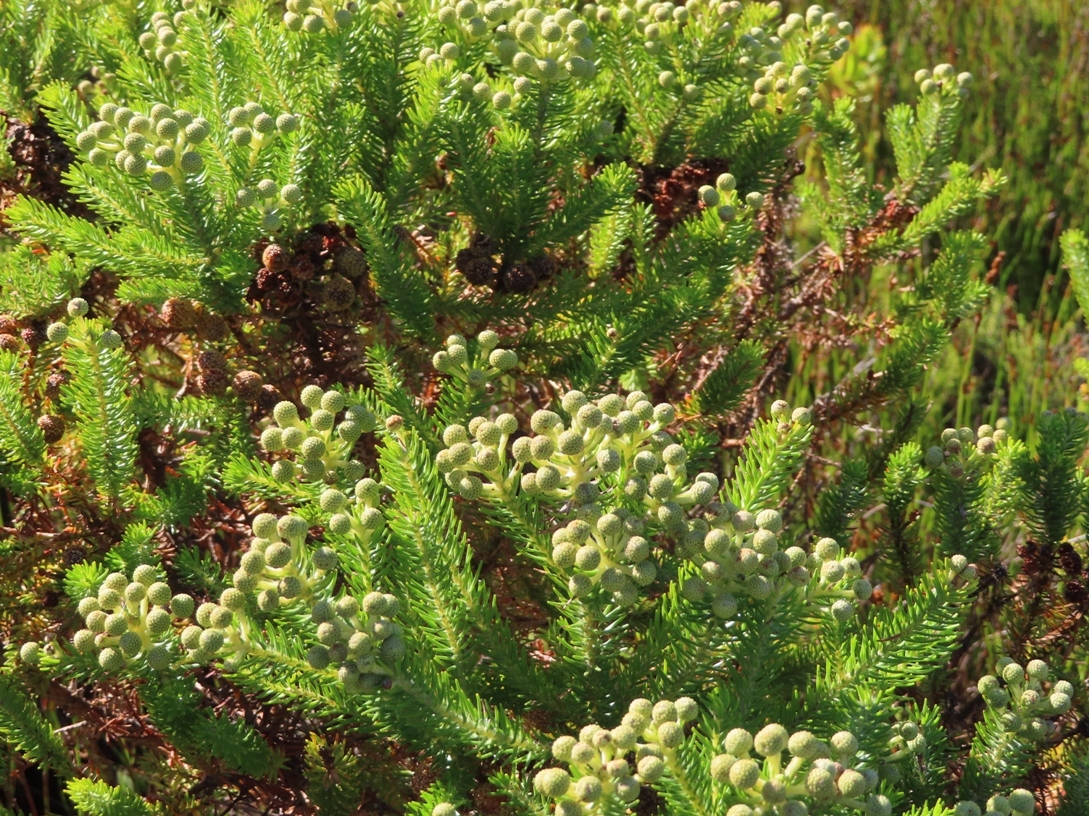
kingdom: Plantae
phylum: Tracheophyta
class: Magnoliopsida
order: Bruniales
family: Bruniaceae
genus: Berzelia
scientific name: Berzelia intermedia
